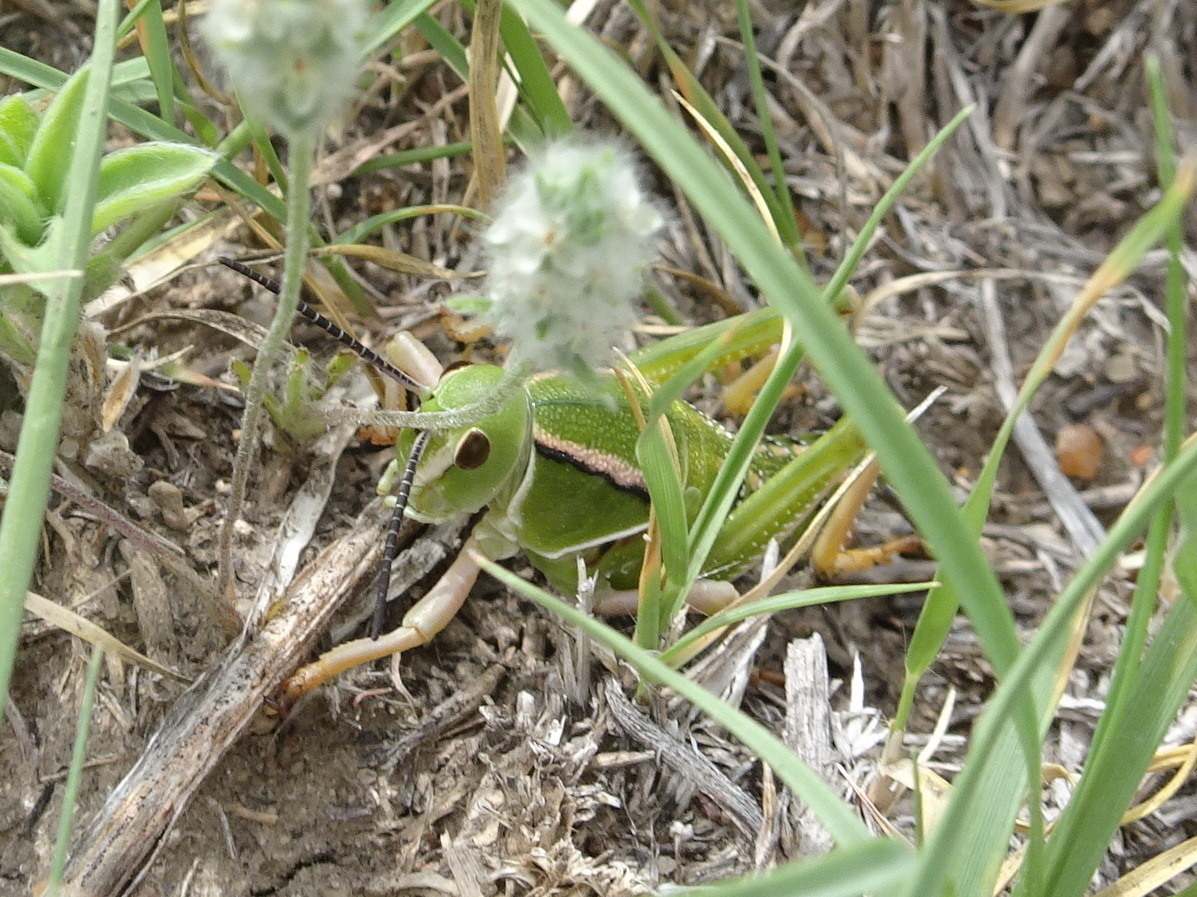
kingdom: Animalia
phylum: Arthropoda
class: Insecta
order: Orthoptera
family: Romaleidae
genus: Brachystola
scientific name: Brachystola magna
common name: Plains lubber grasshopper
